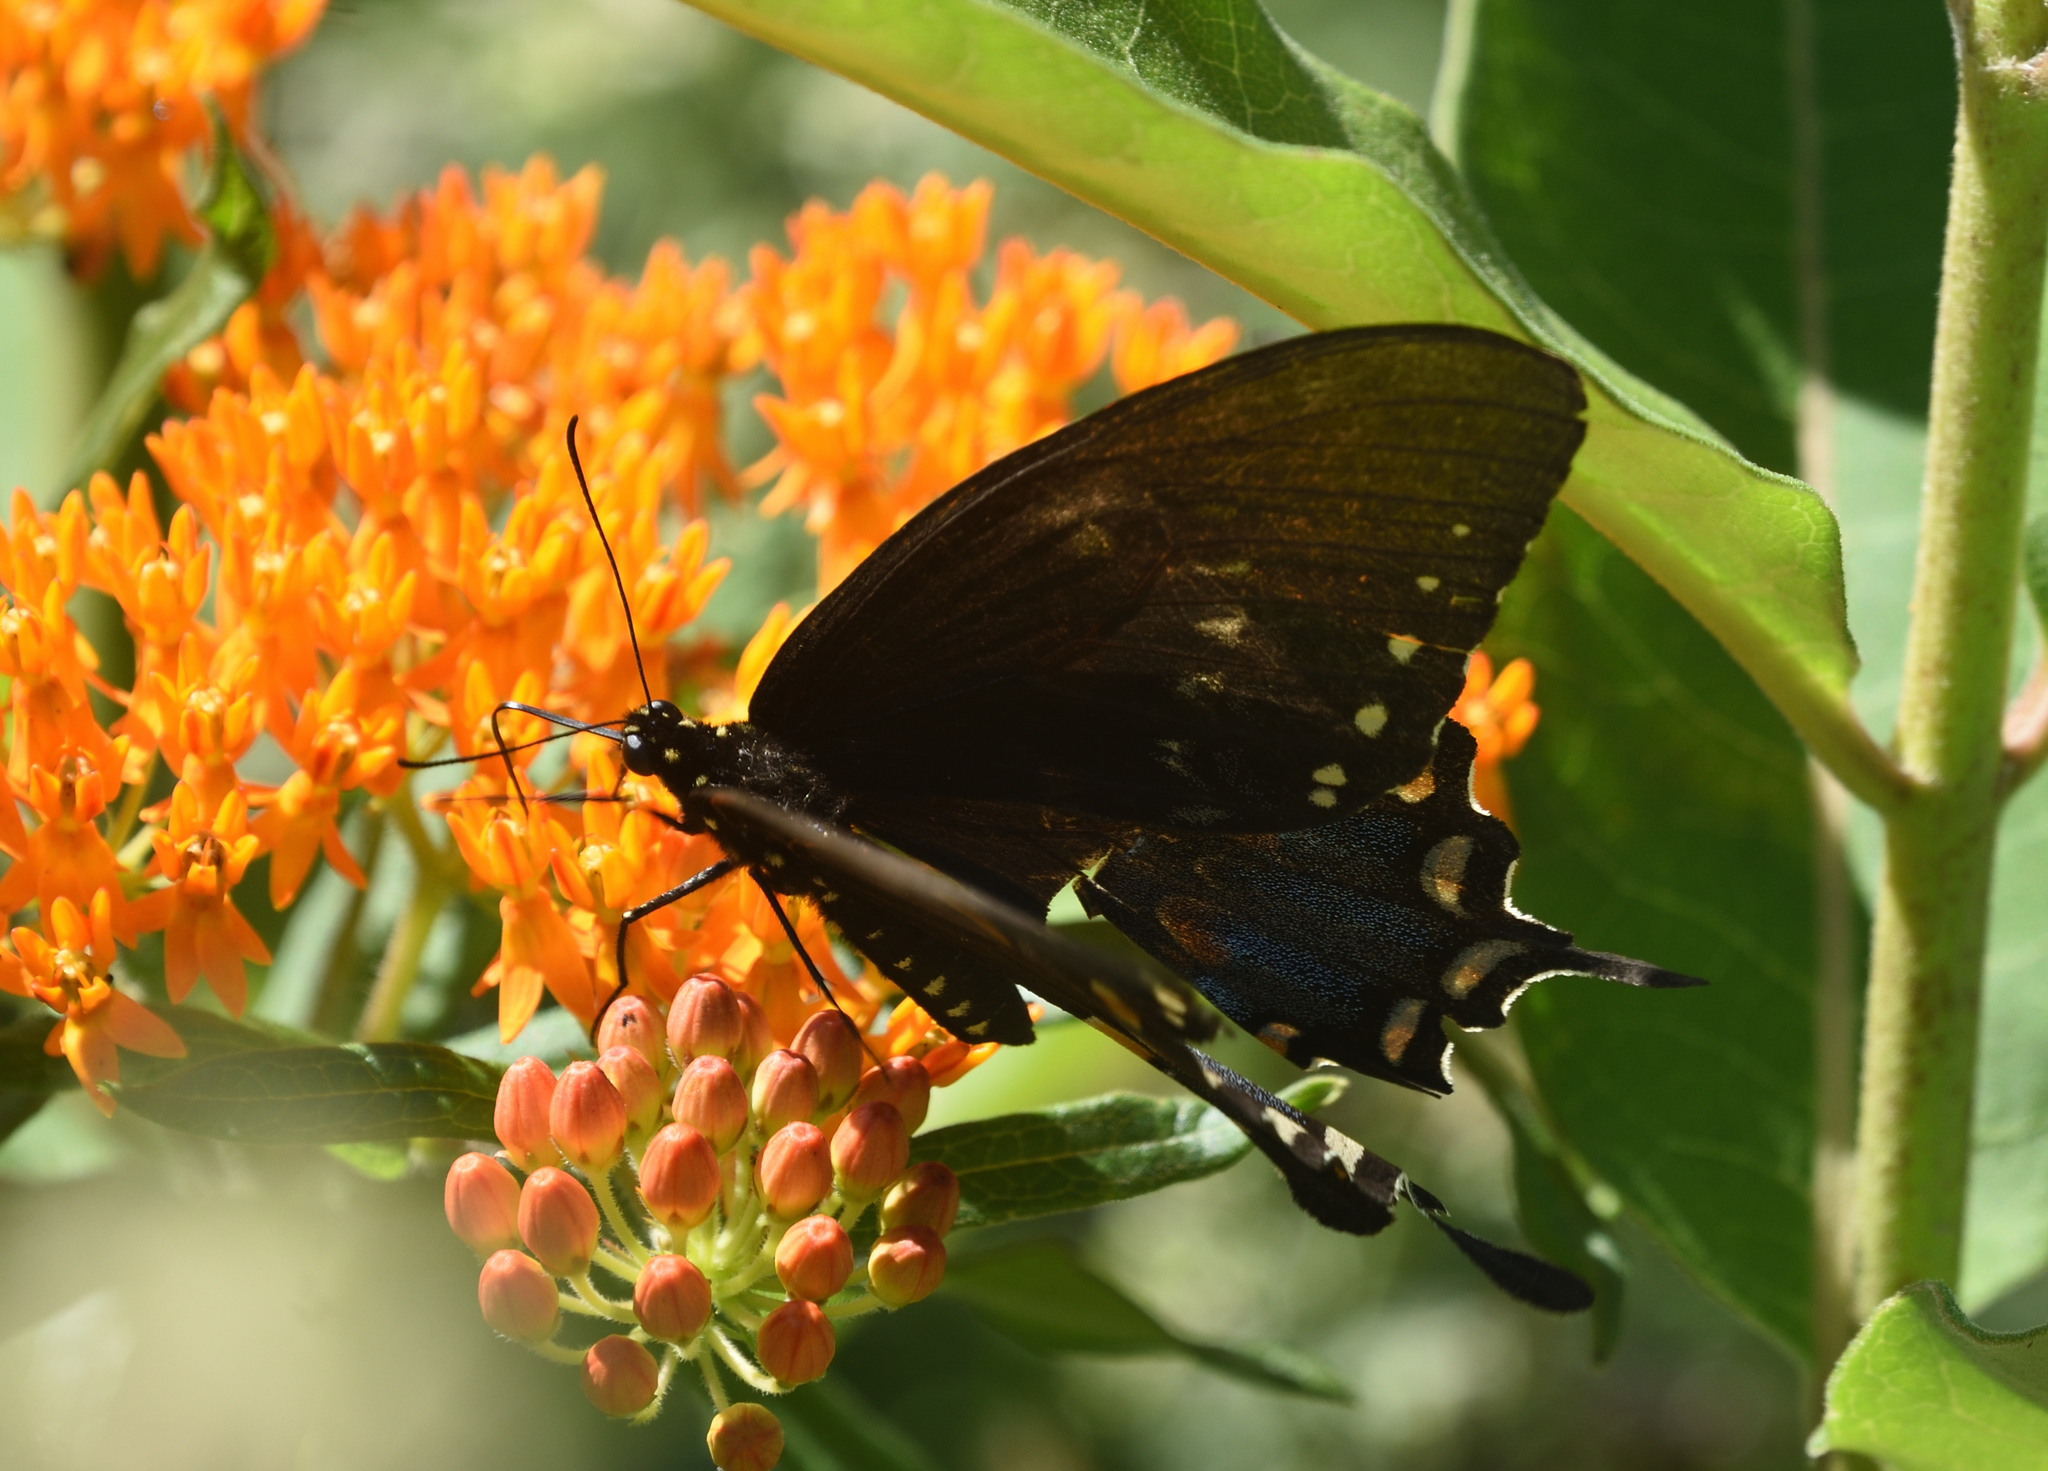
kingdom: Animalia
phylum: Arthropoda
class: Insecta
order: Lepidoptera
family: Papilionidae
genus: Papilio
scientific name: Papilio glaucus
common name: Tiger swallowtail
